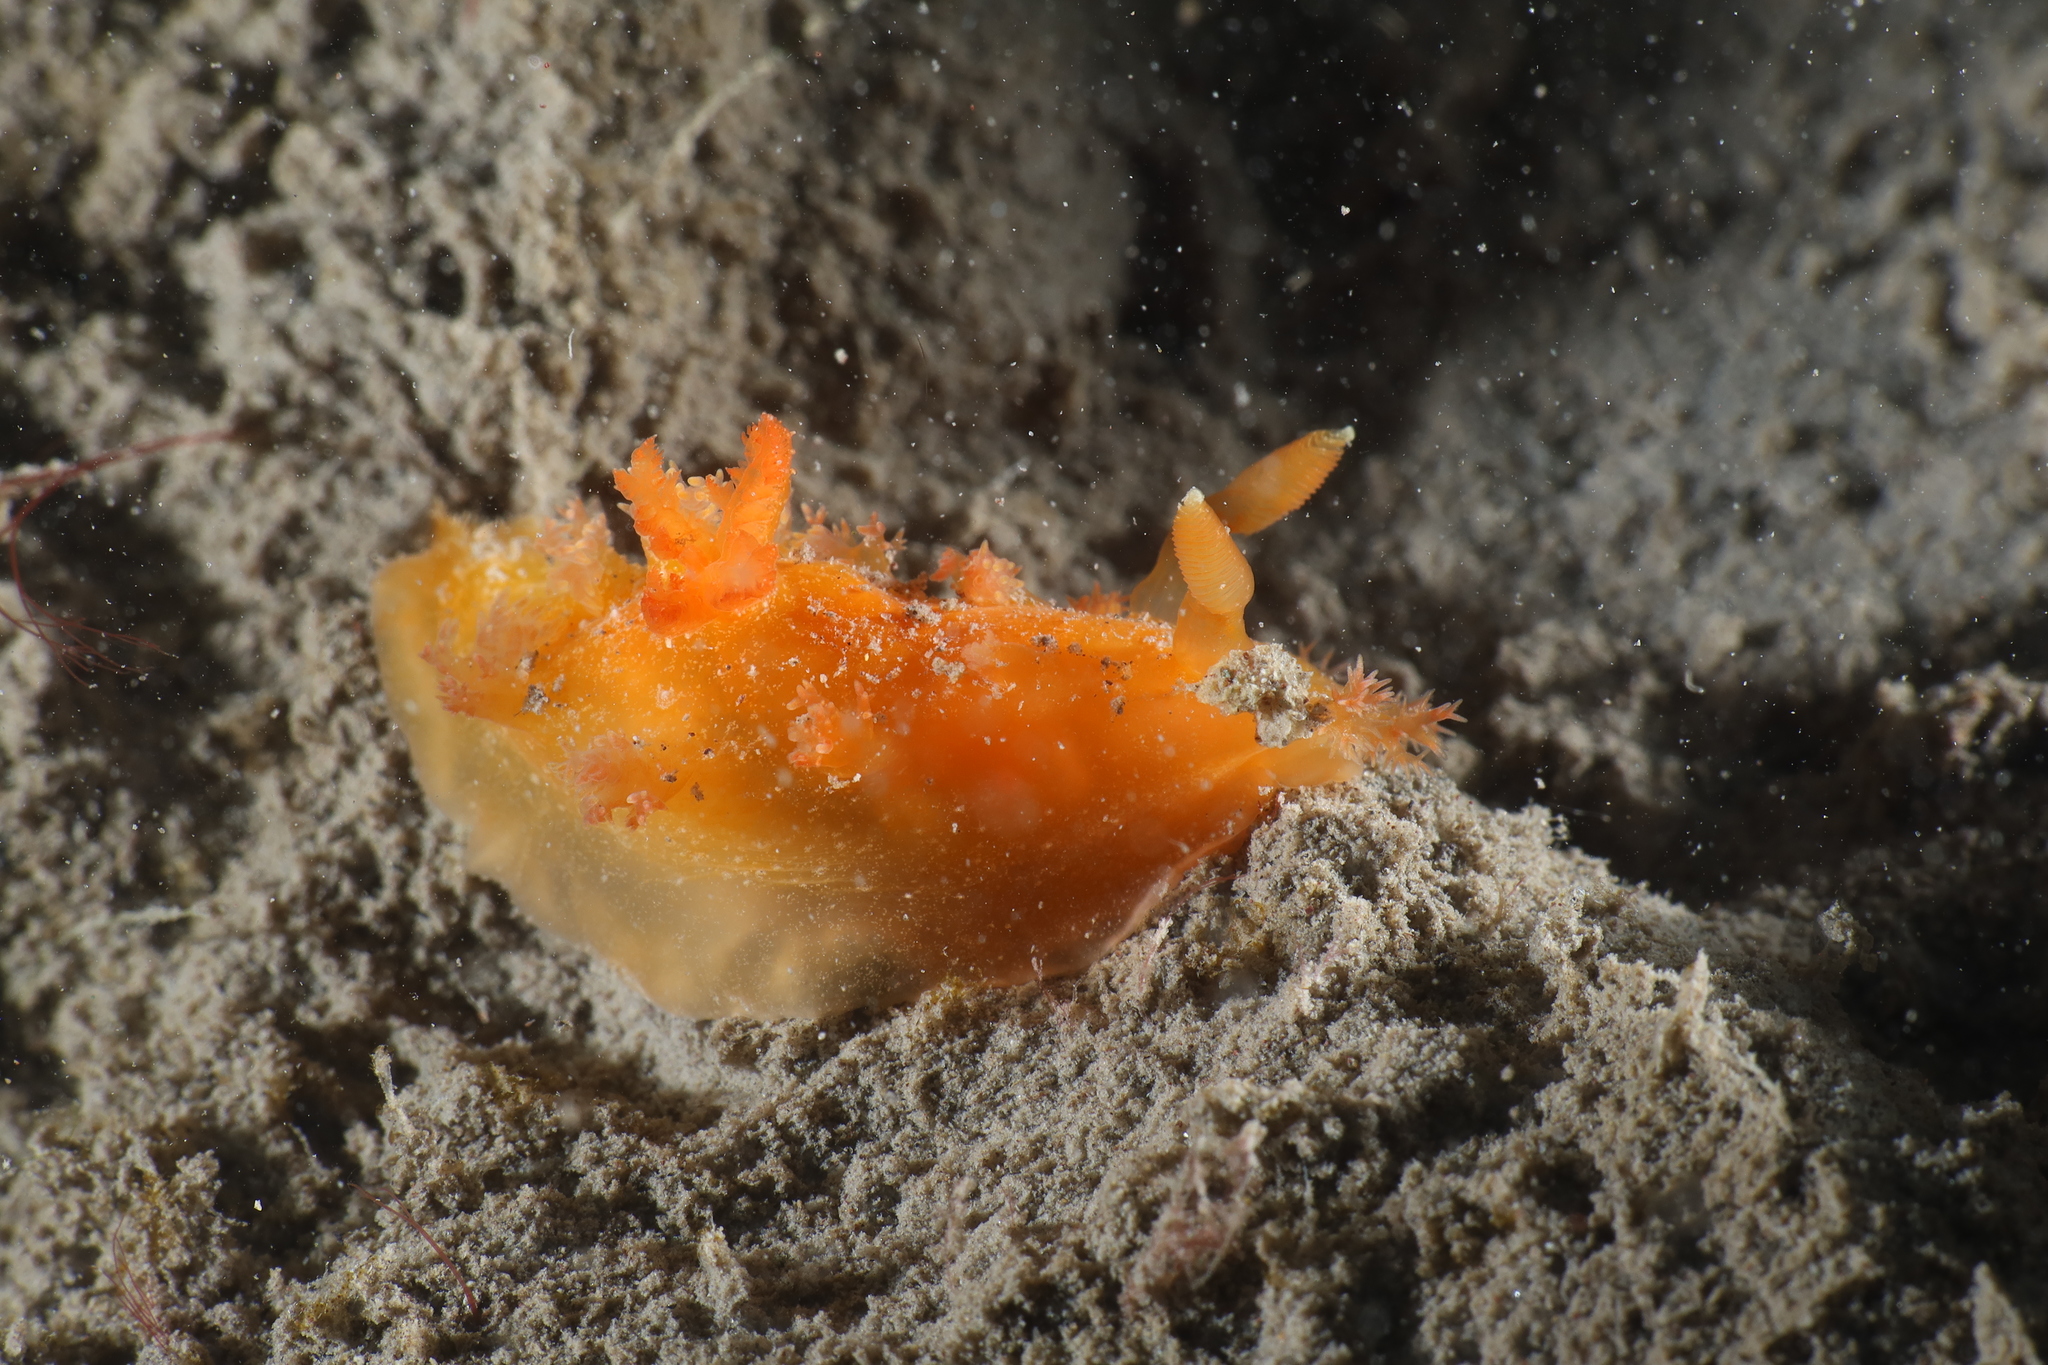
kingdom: Animalia
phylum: Mollusca
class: Gastropoda
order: Nudibranchia
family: Polyceridae
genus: Kaloplocamus
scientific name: Kaloplocamus ramosus
